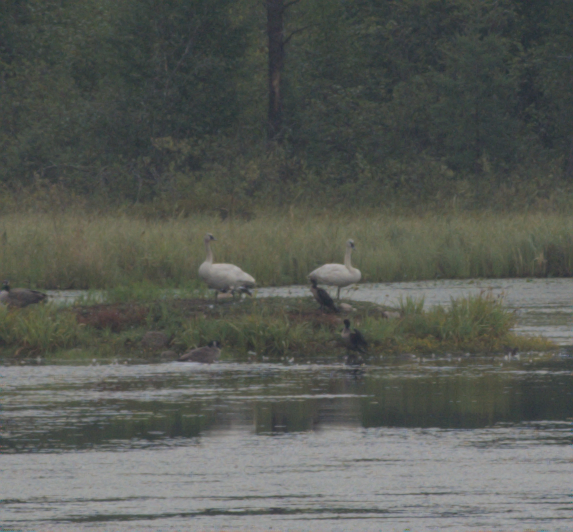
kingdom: Animalia
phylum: Chordata
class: Aves
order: Anseriformes
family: Anatidae
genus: Cygnus
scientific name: Cygnus buccinator
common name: Trumpeter swan
